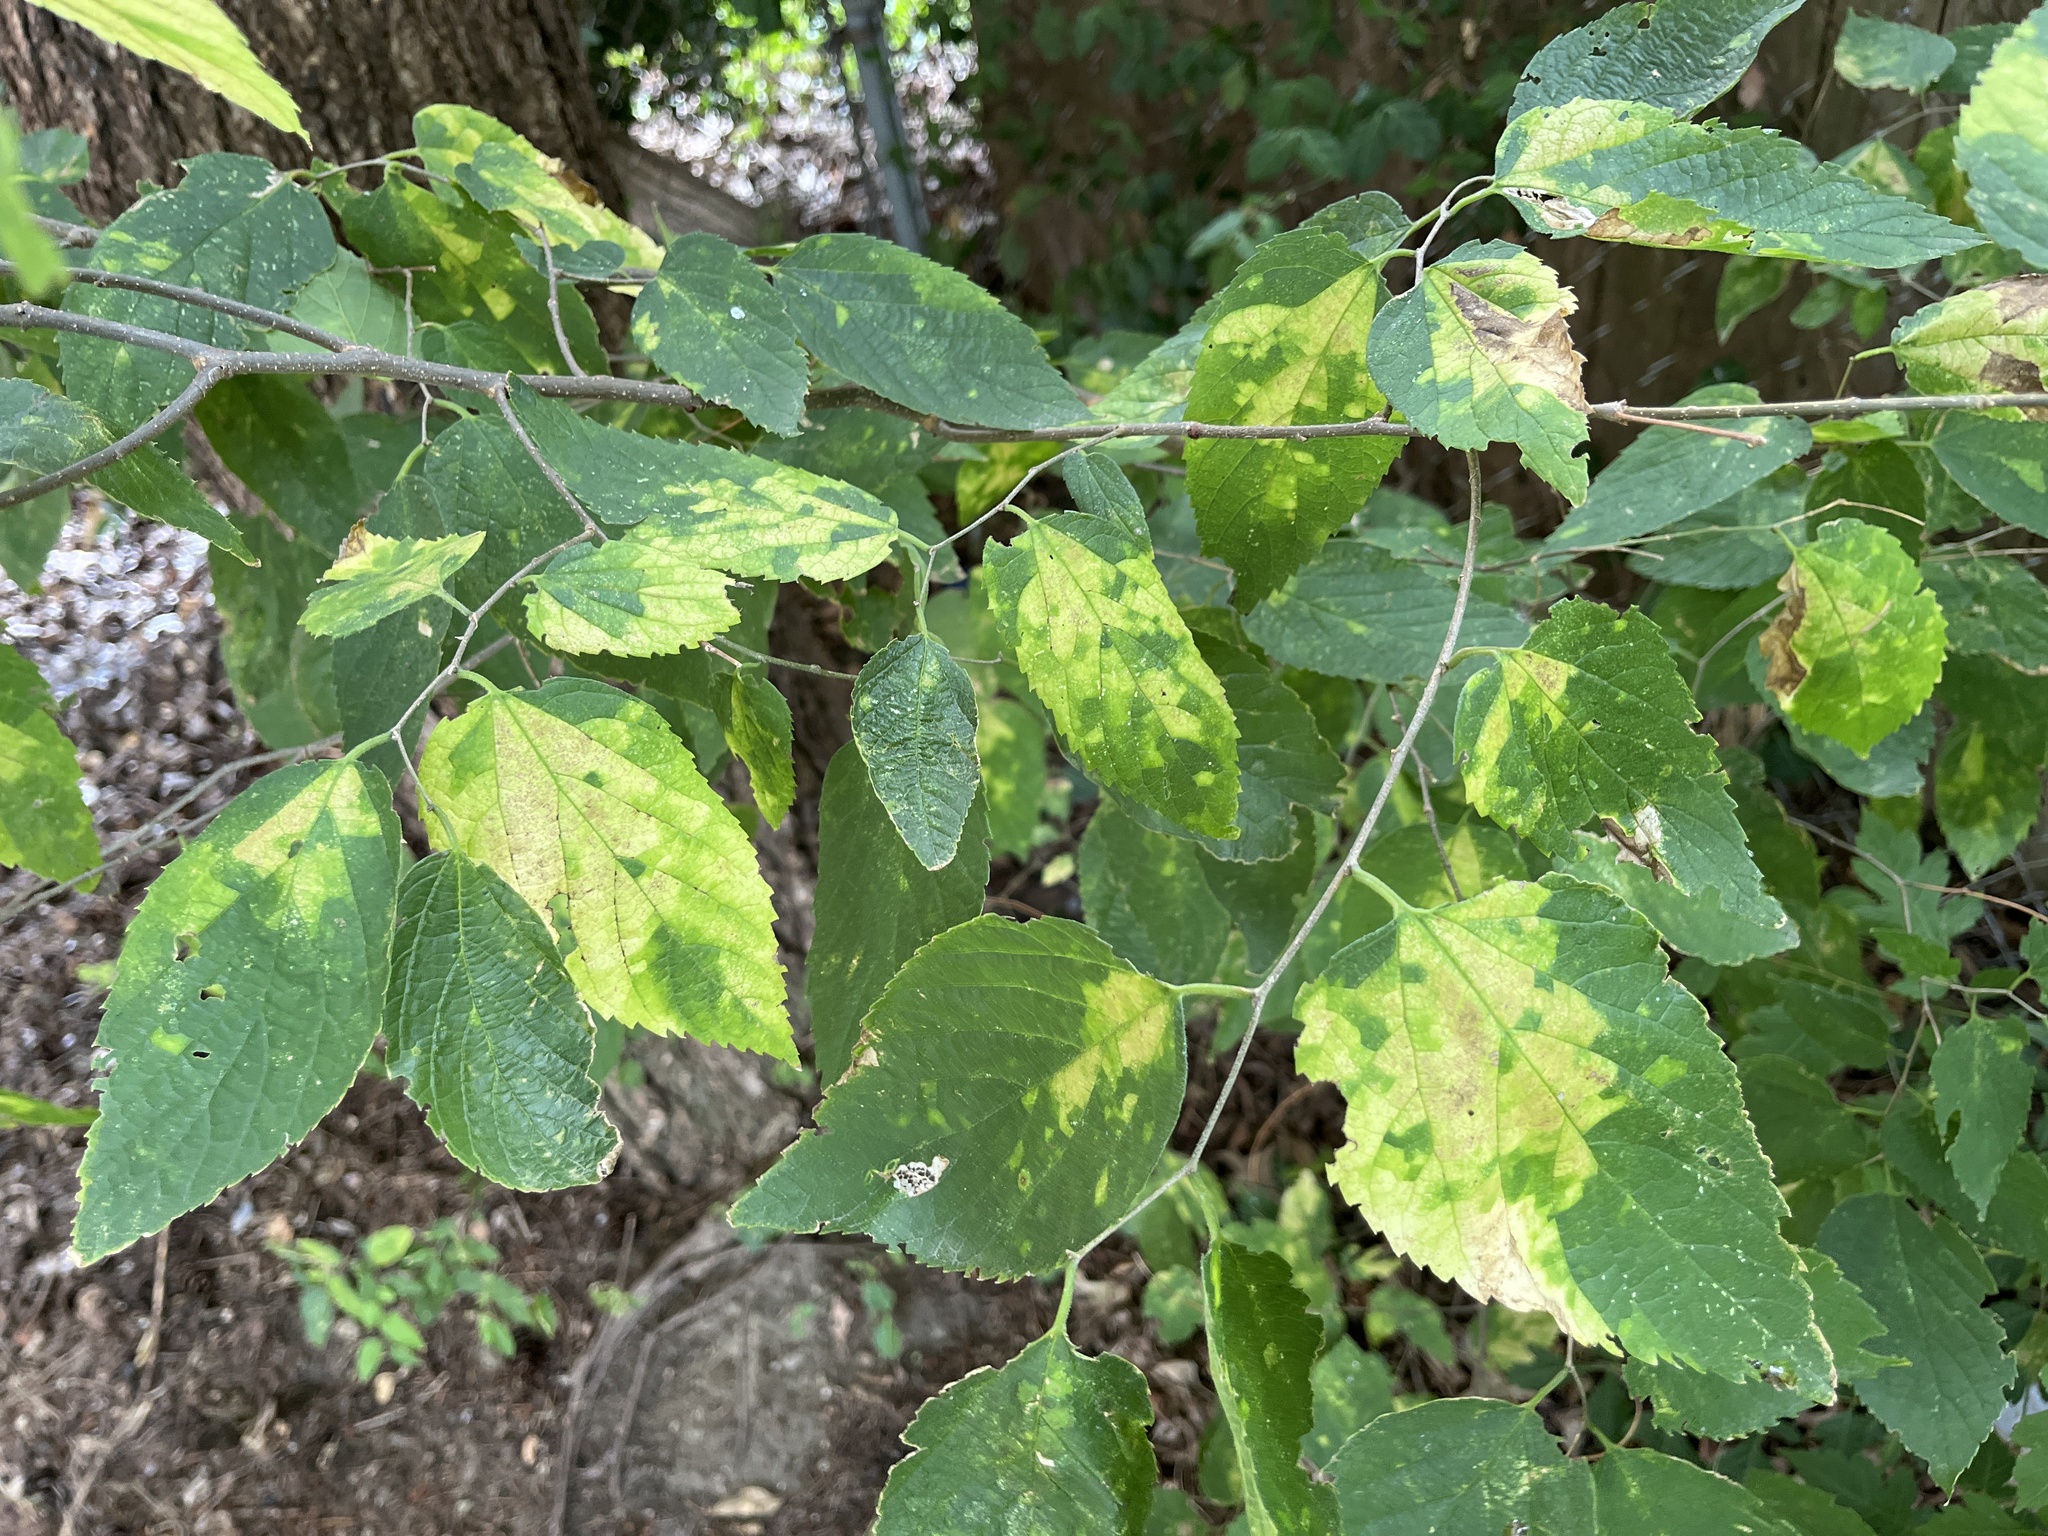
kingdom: Viruses
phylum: Kitrinoviricota
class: Alsuviricetes
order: Martellivirales
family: Closteroviridae
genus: Ampelovirus
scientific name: Ampelovirus
